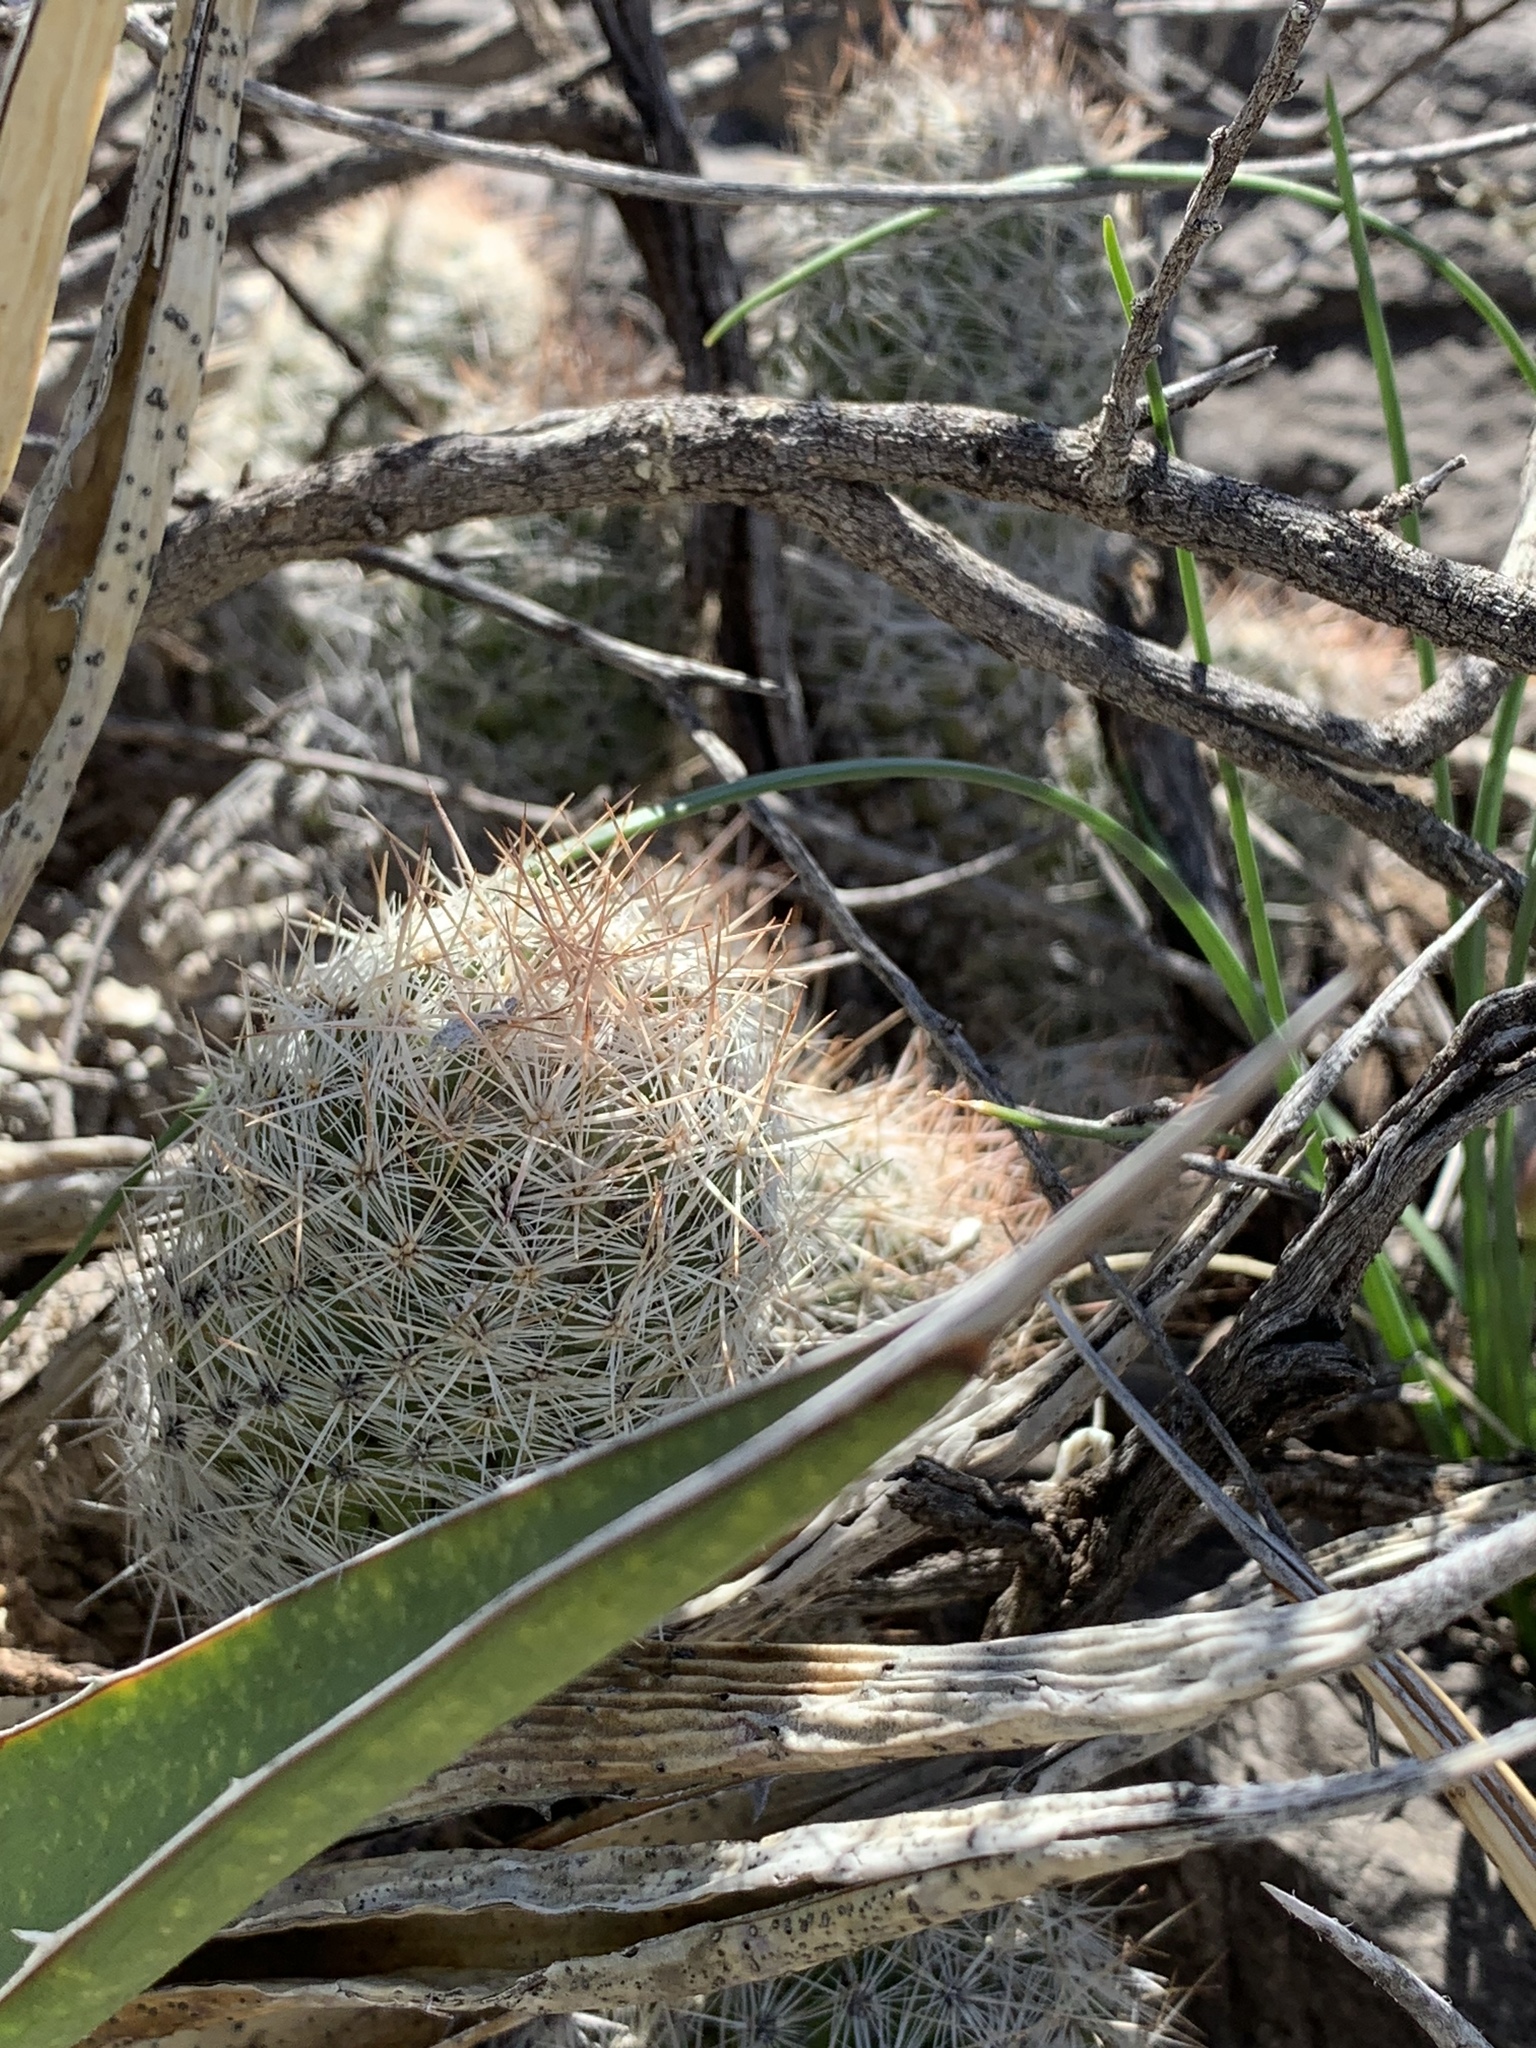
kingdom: Plantae
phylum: Tracheophyta
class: Magnoliopsida
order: Caryophyllales
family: Cactaceae
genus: Pelecyphora
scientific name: Pelecyphora tuberculosa
